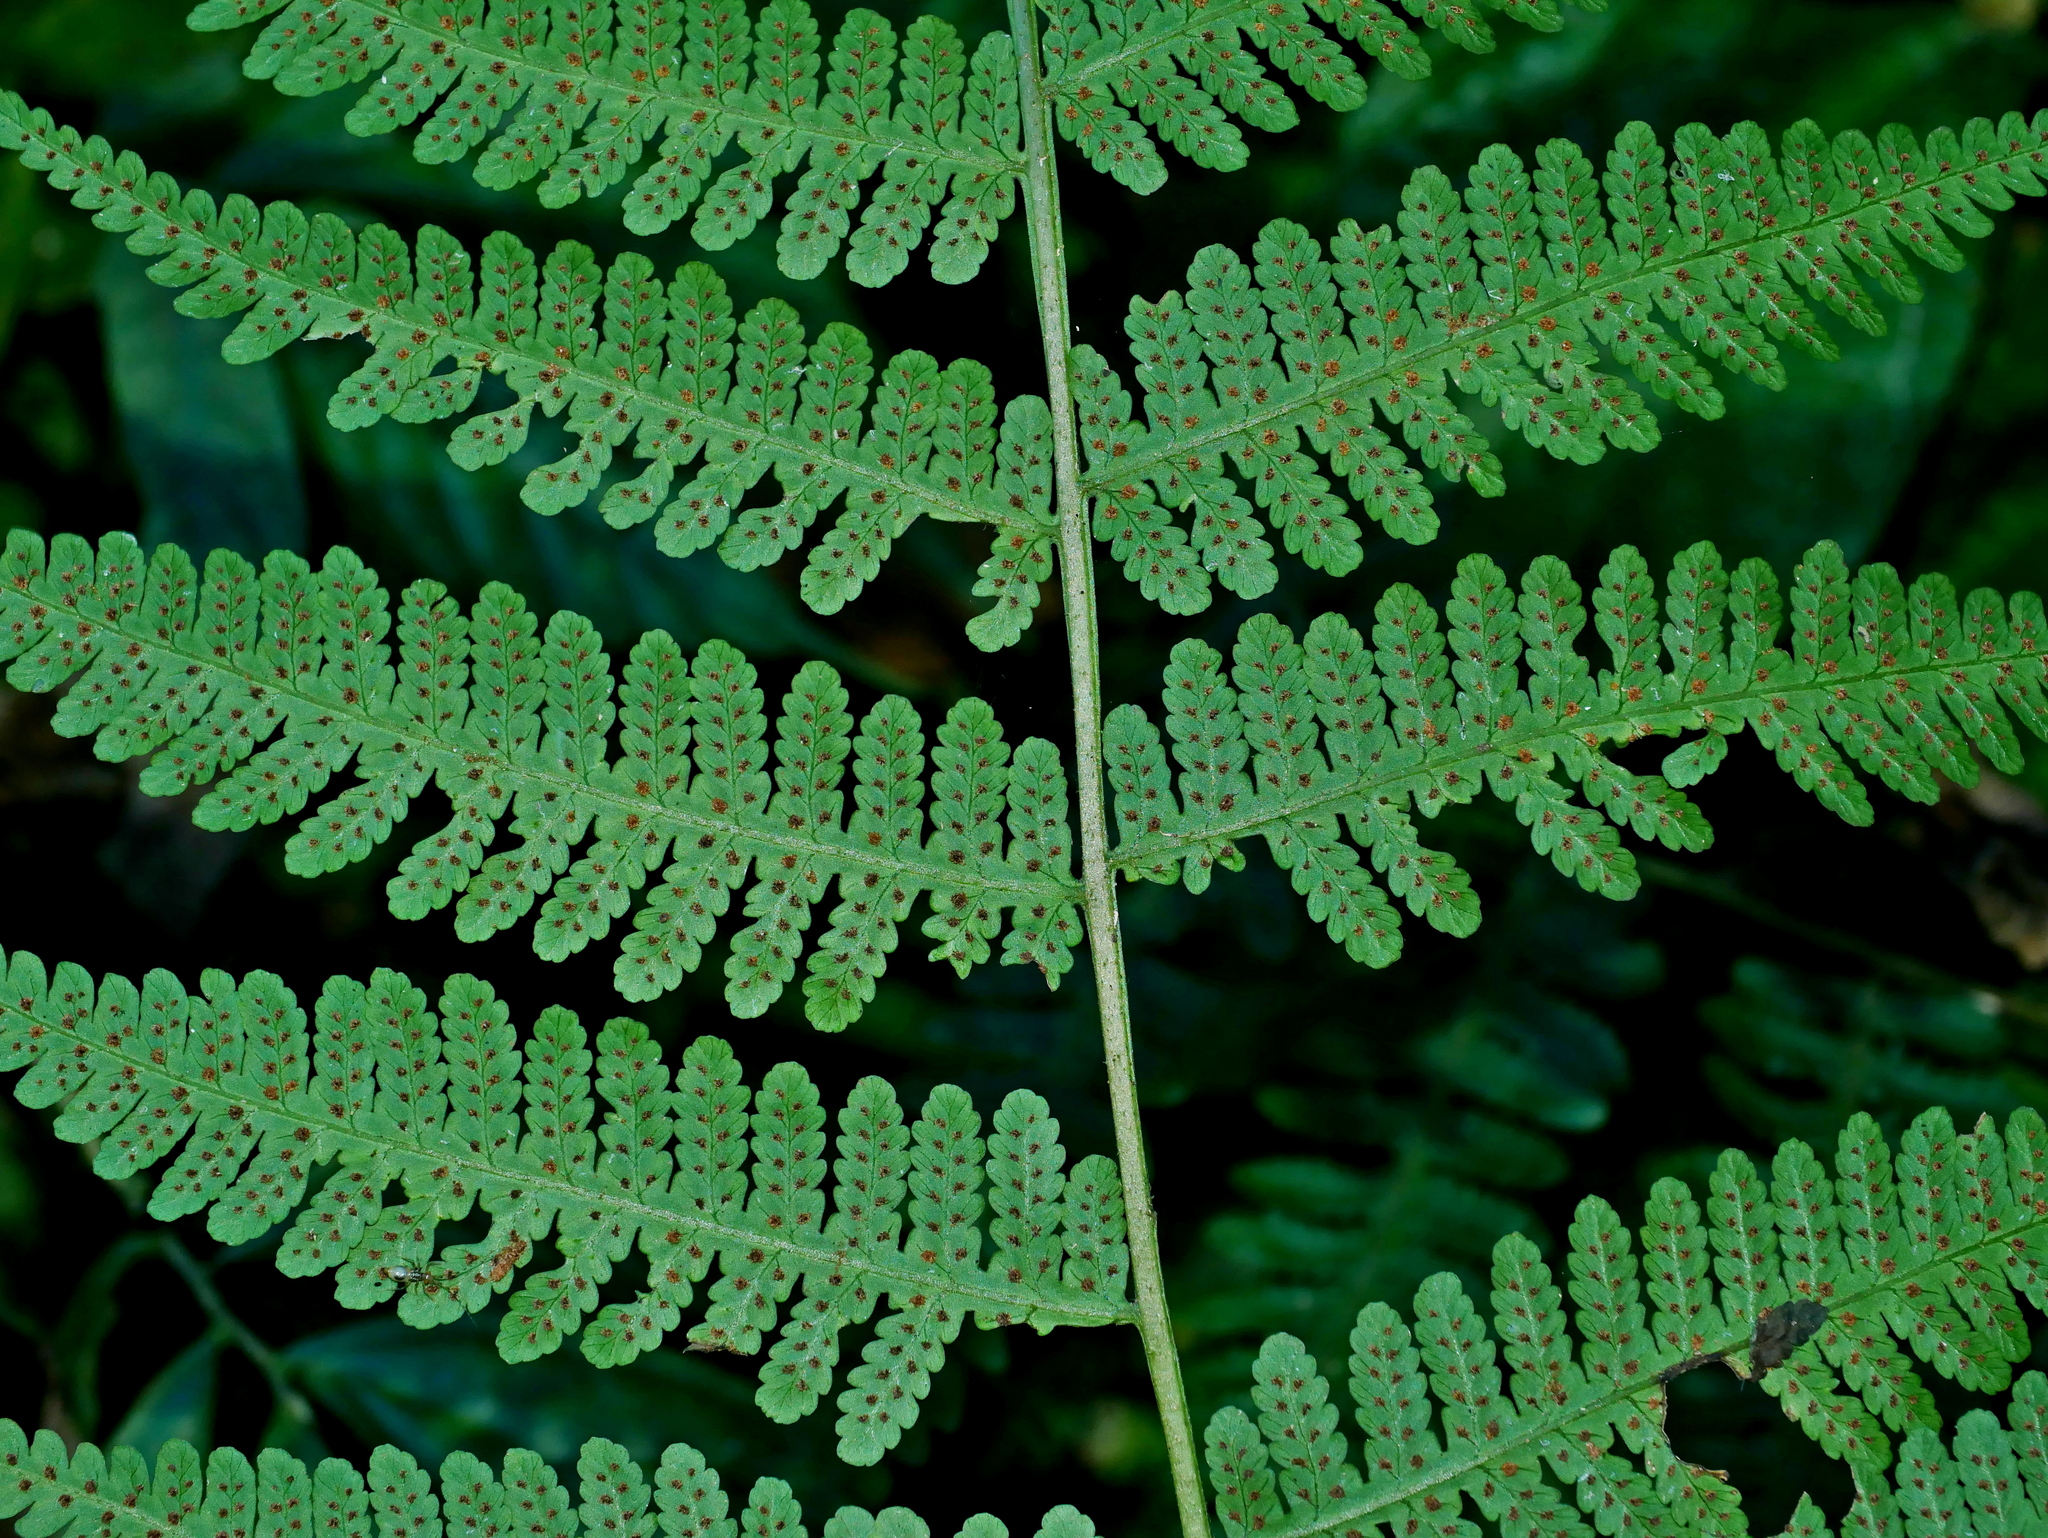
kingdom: Plantae
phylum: Tracheophyta
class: Polypodiopsida
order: Polypodiales
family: Athyriaceae
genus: Deparia
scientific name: Deparia boryana
